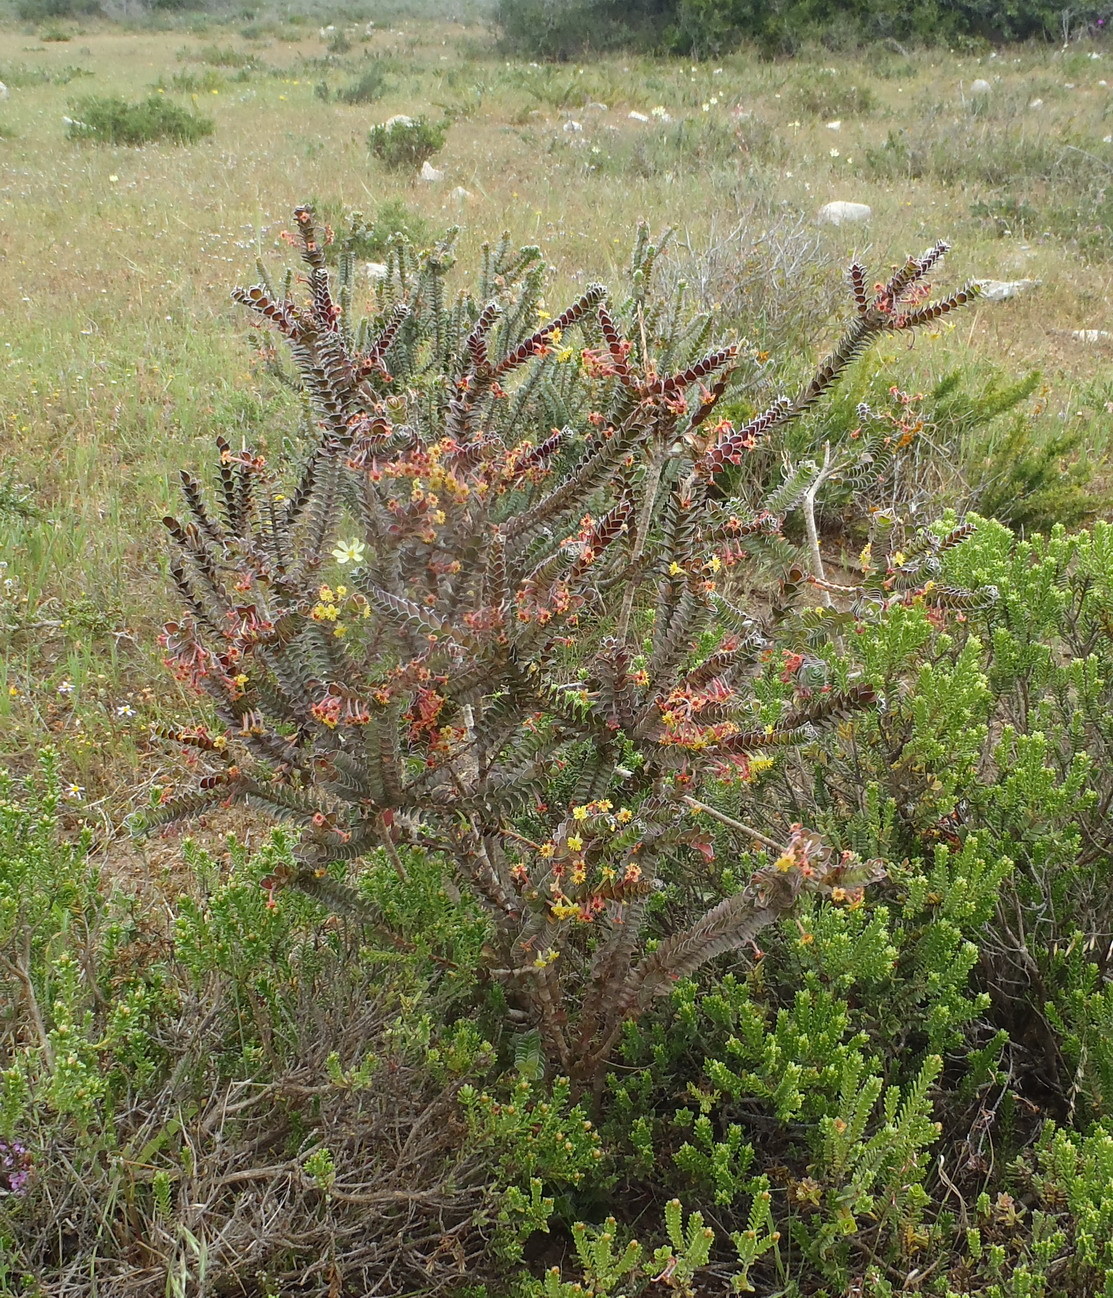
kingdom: Plantae
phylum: Tracheophyta
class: Magnoliopsida
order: Malvales
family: Thymelaeaceae
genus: Struthiola
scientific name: Struthiola argentea
